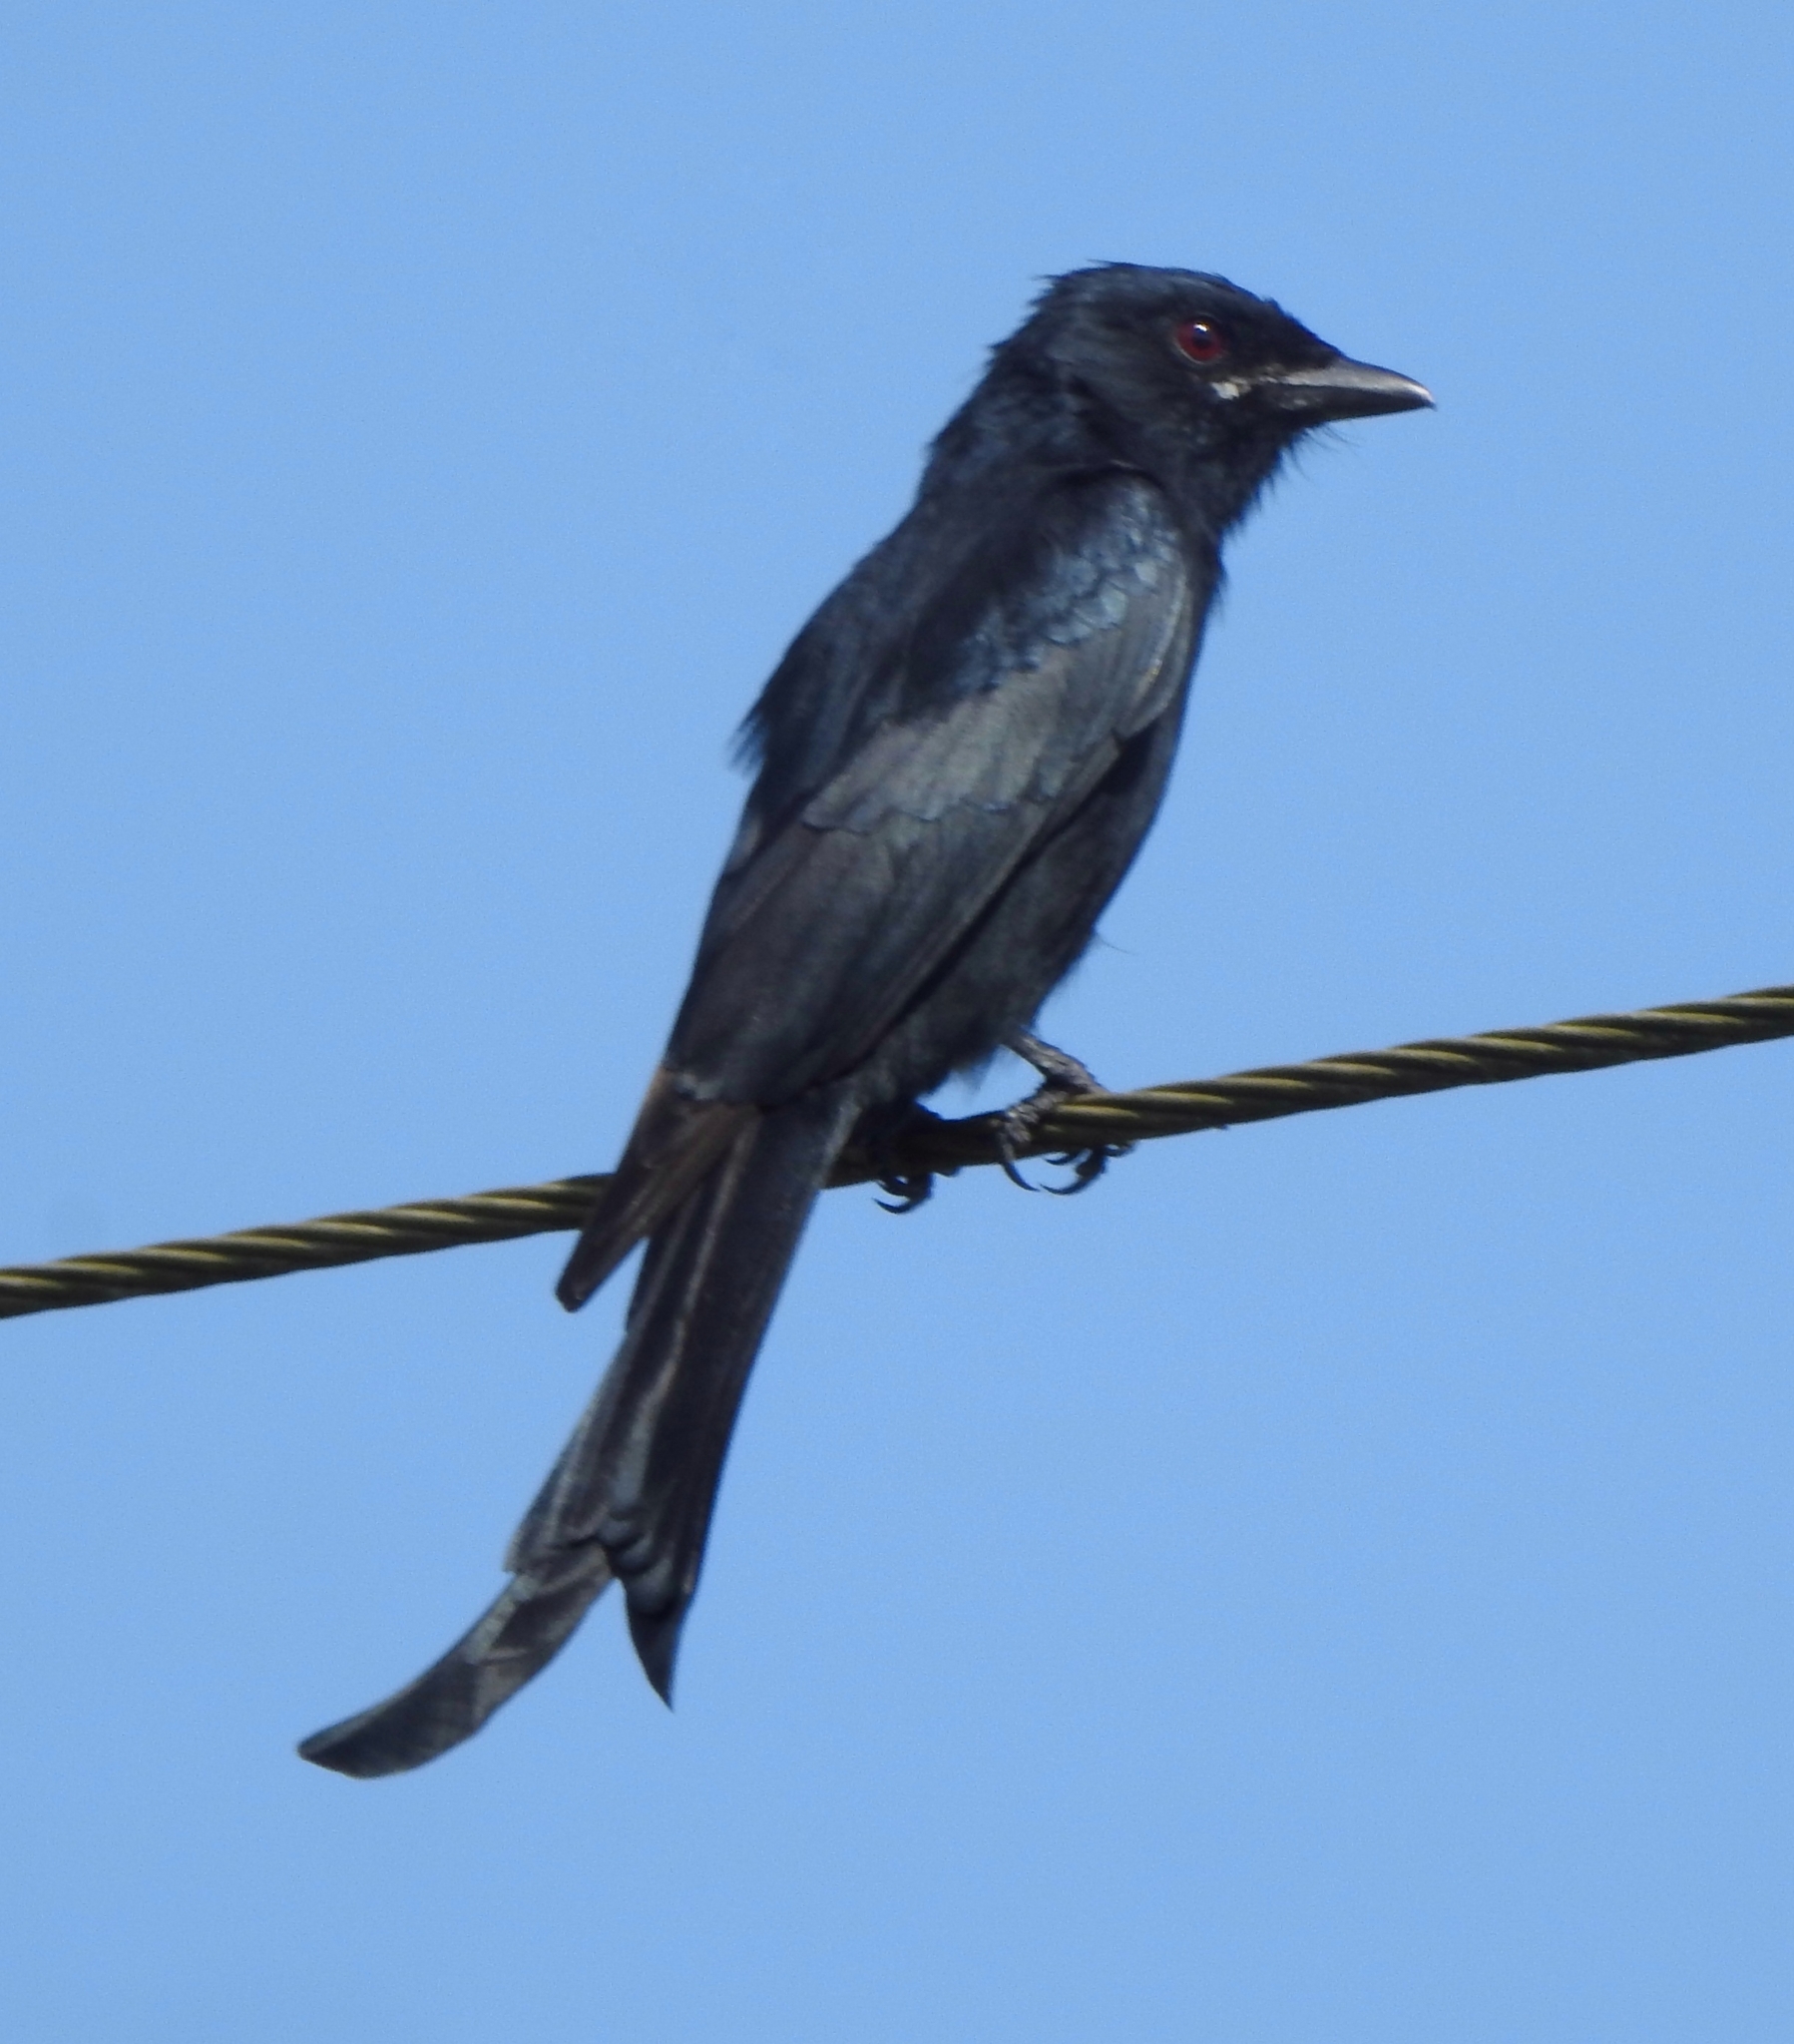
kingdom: Animalia
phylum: Chordata
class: Aves
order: Passeriformes
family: Dicruridae
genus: Dicrurus
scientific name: Dicrurus macrocercus
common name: Black drongo
